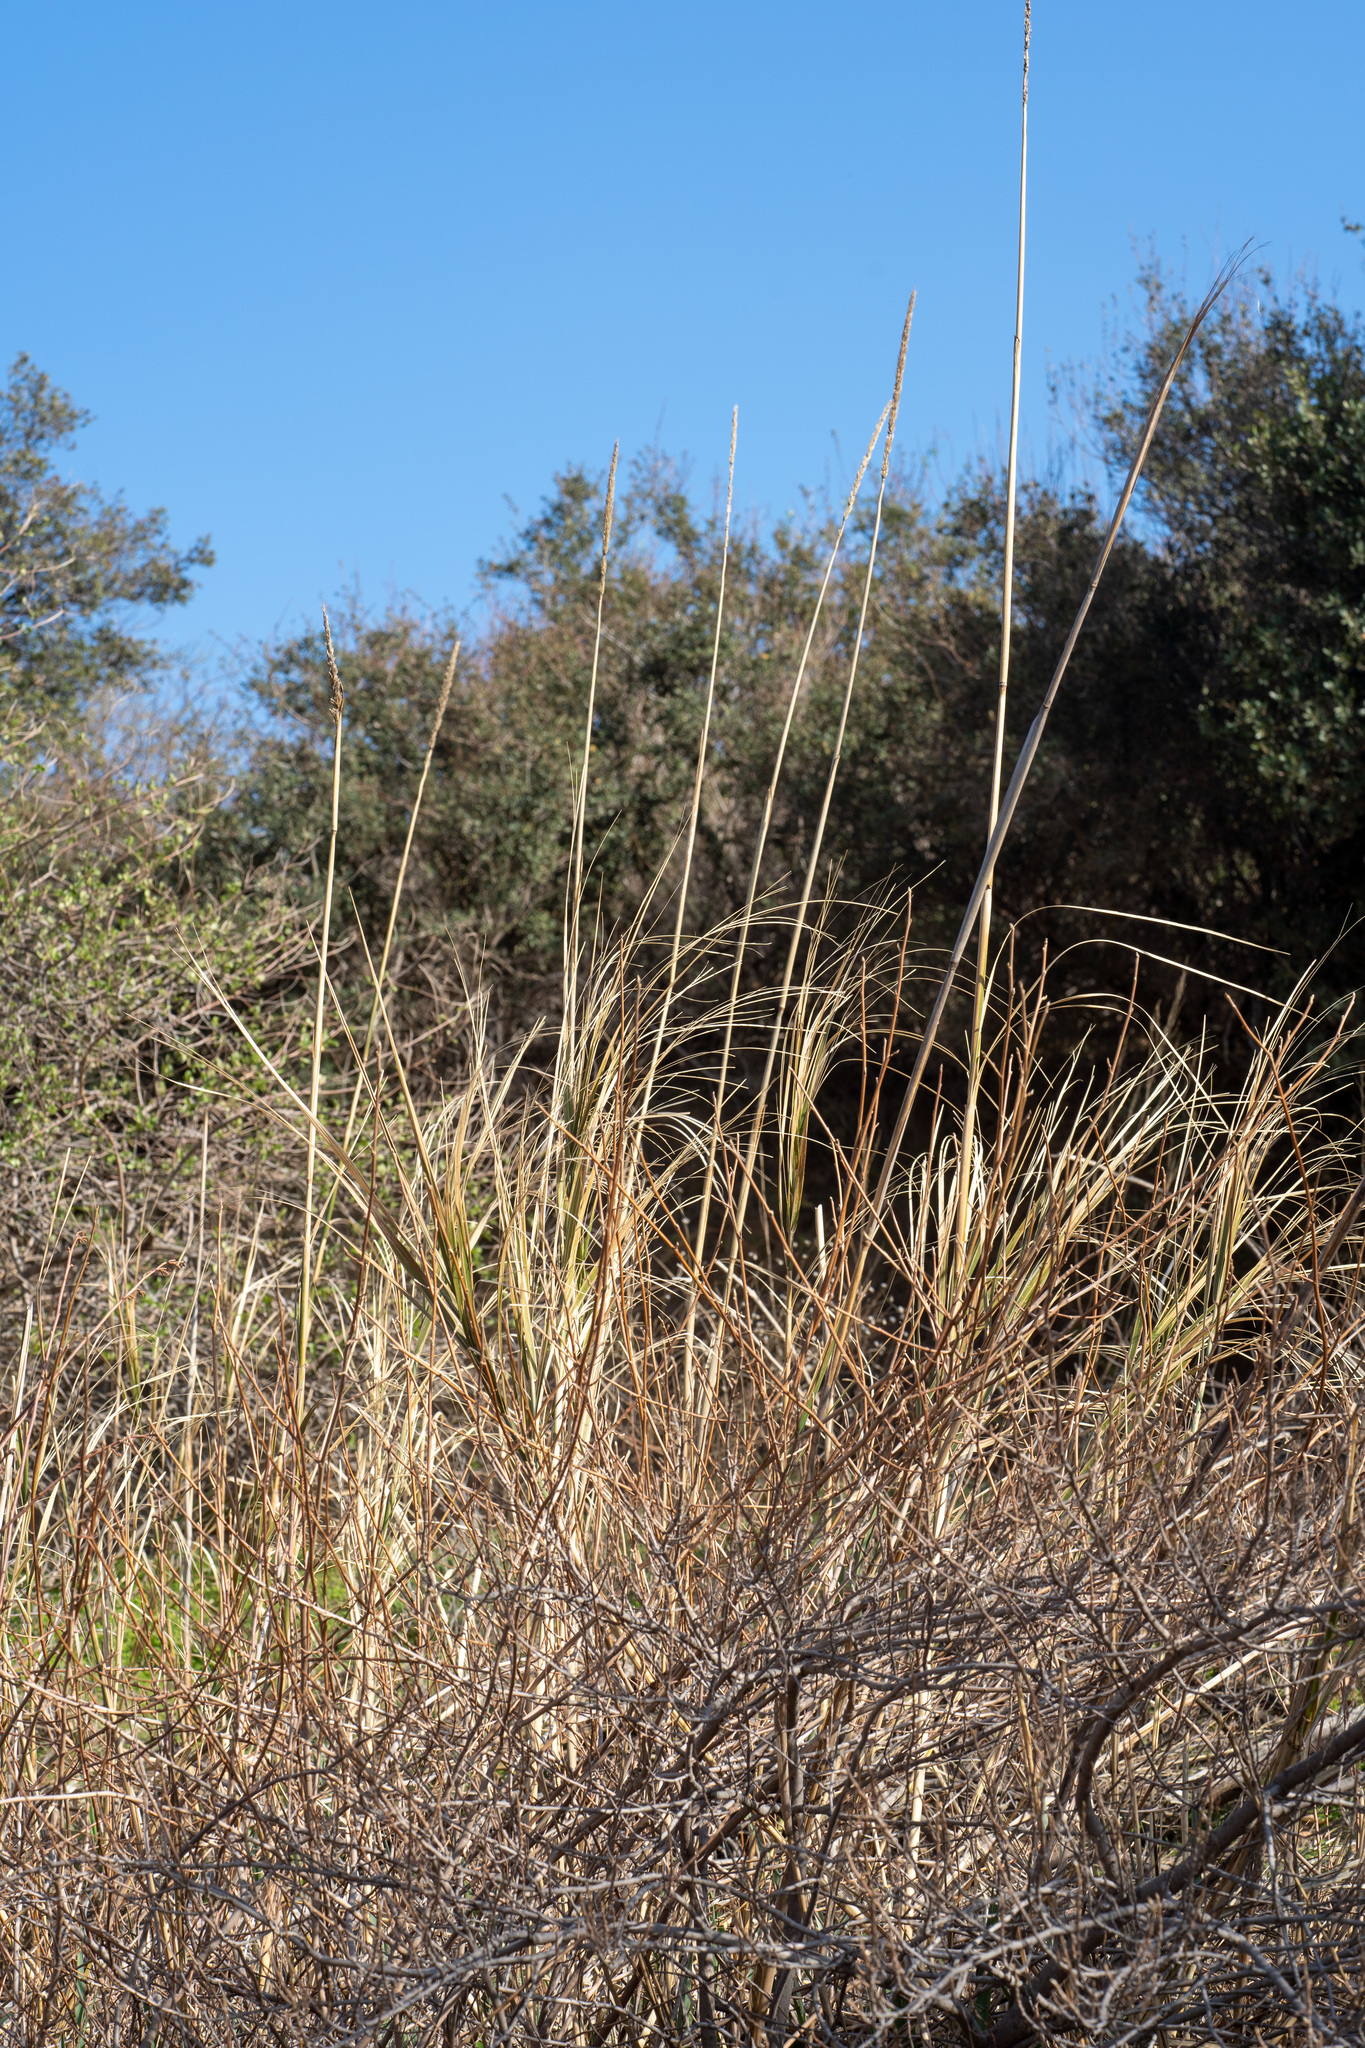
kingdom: Plantae
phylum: Tracheophyta
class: Liliopsida
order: Poales
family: Poaceae
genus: Leymus
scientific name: Leymus condensatus
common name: Giant wild rye
